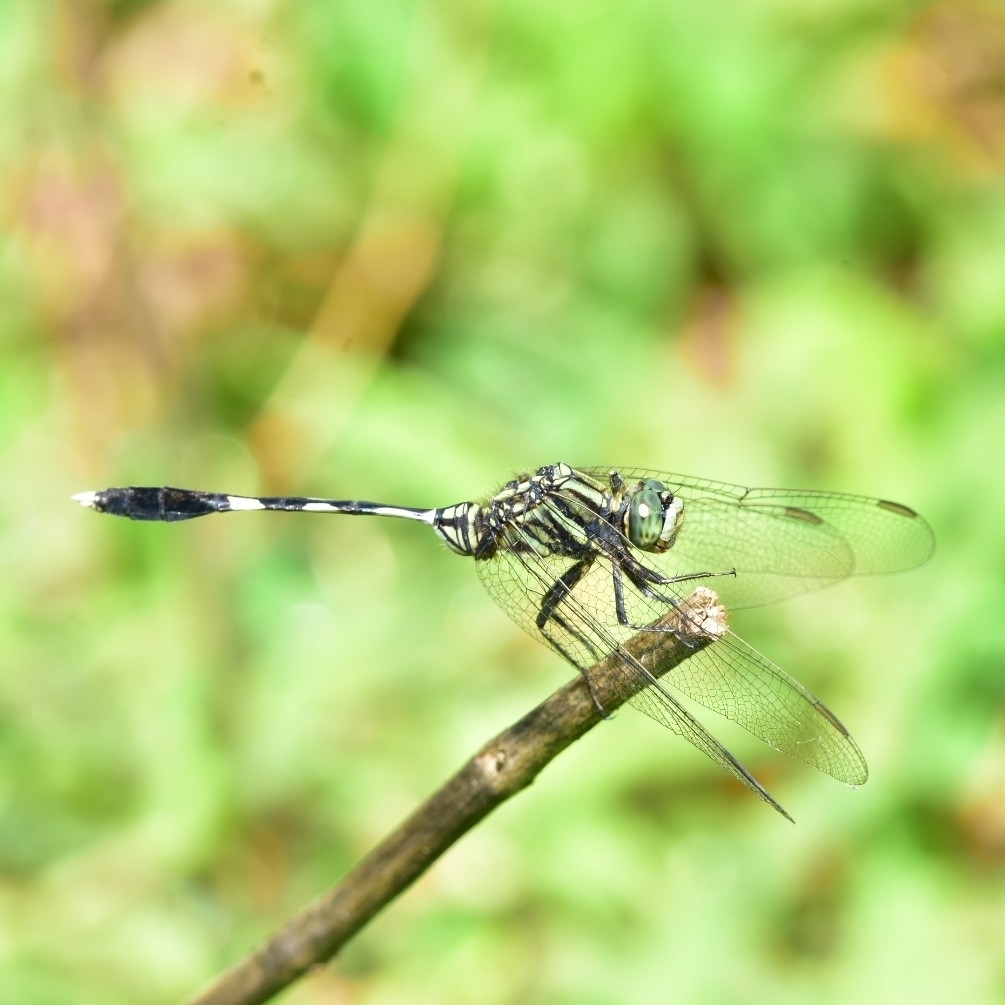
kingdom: Animalia
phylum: Arthropoda
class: Insecta
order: Odonata
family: Libellulidae
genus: Orthetrum
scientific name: Orthetrum sabina
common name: Slender skimmer
